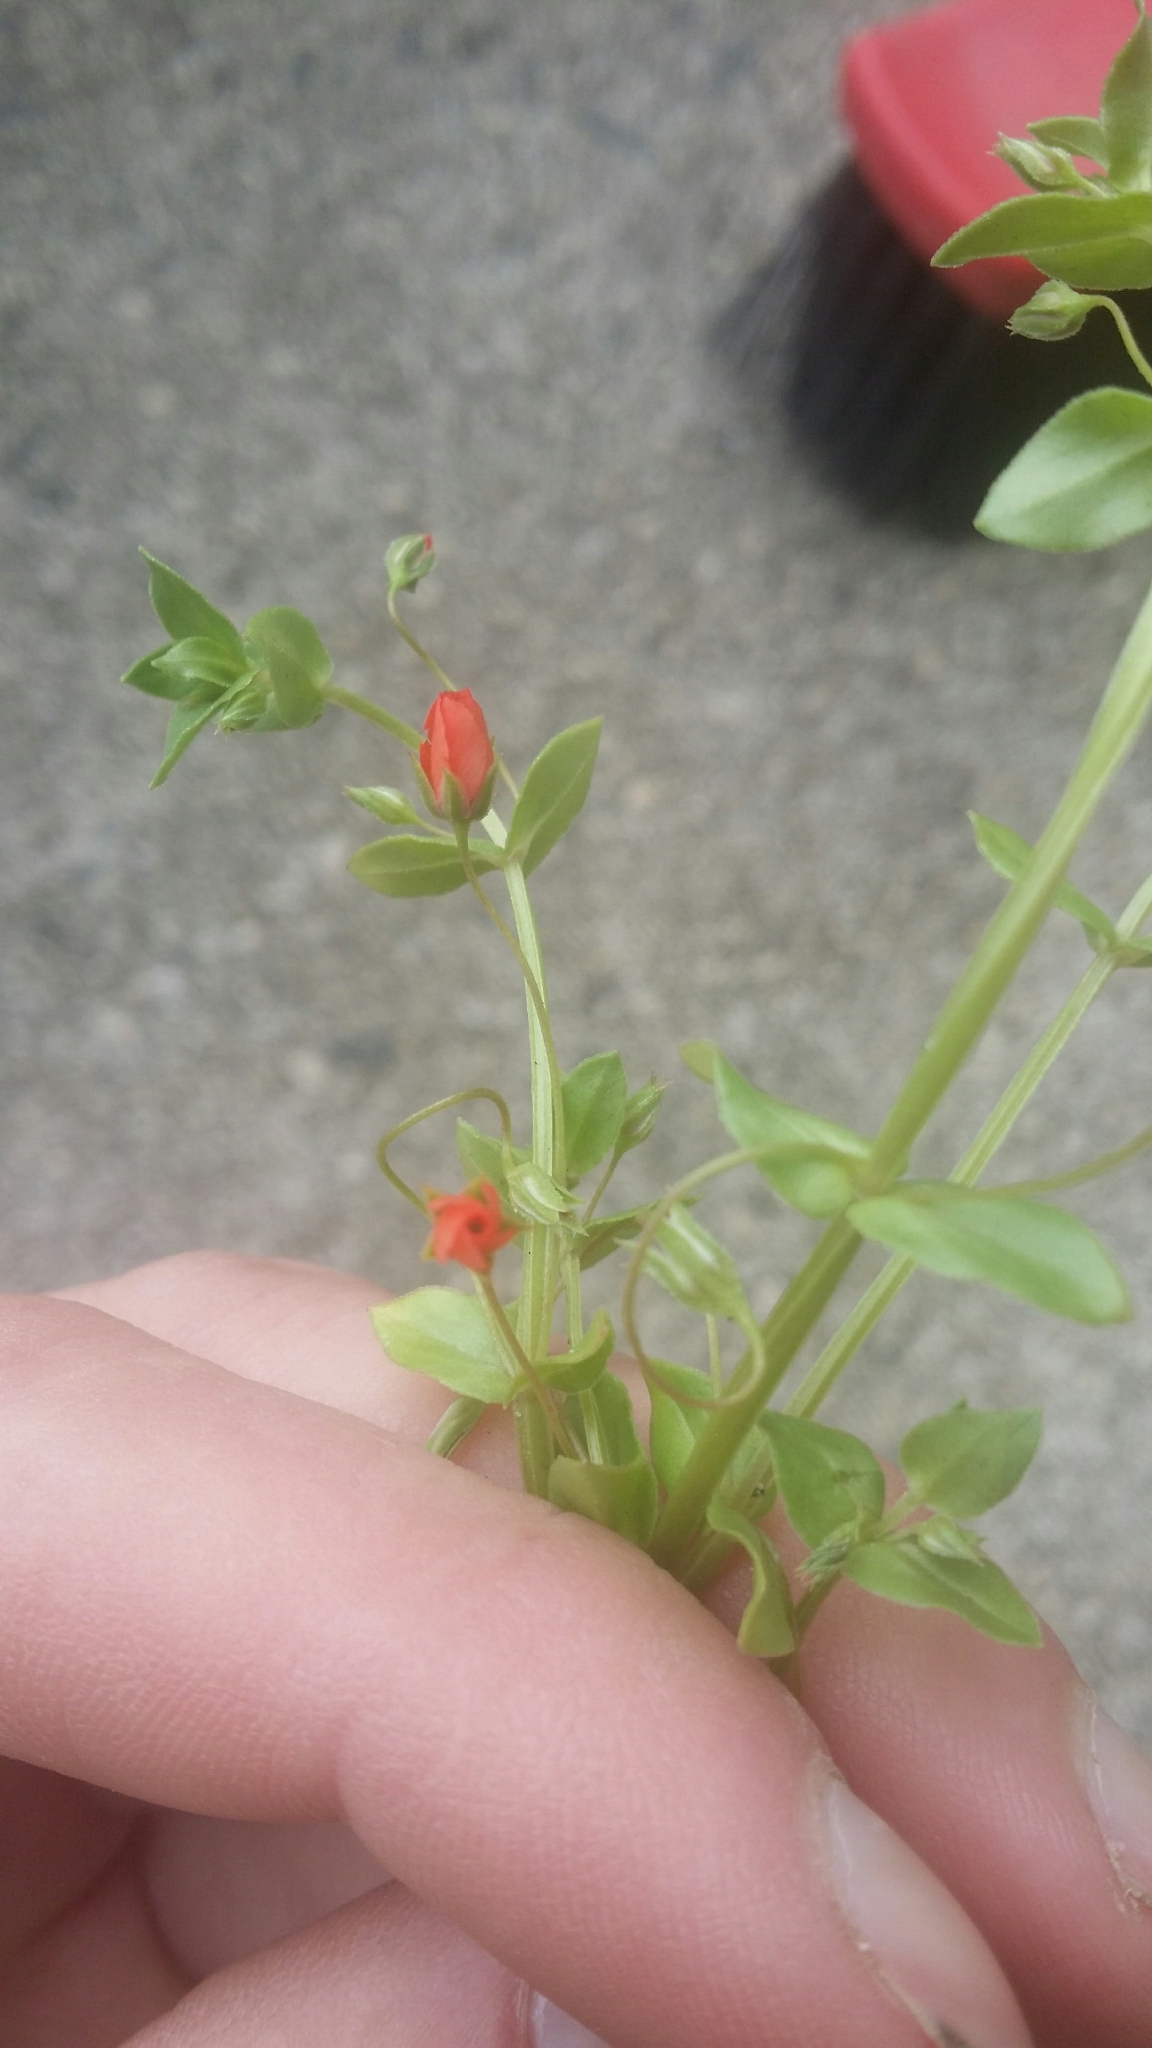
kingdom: Plantae
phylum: Tracheophyta
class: Magnoliopsida
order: Ericales
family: Primulaceae
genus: Lysimachia
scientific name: Lysimachia arvensis
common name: Scarlet pimpernel
